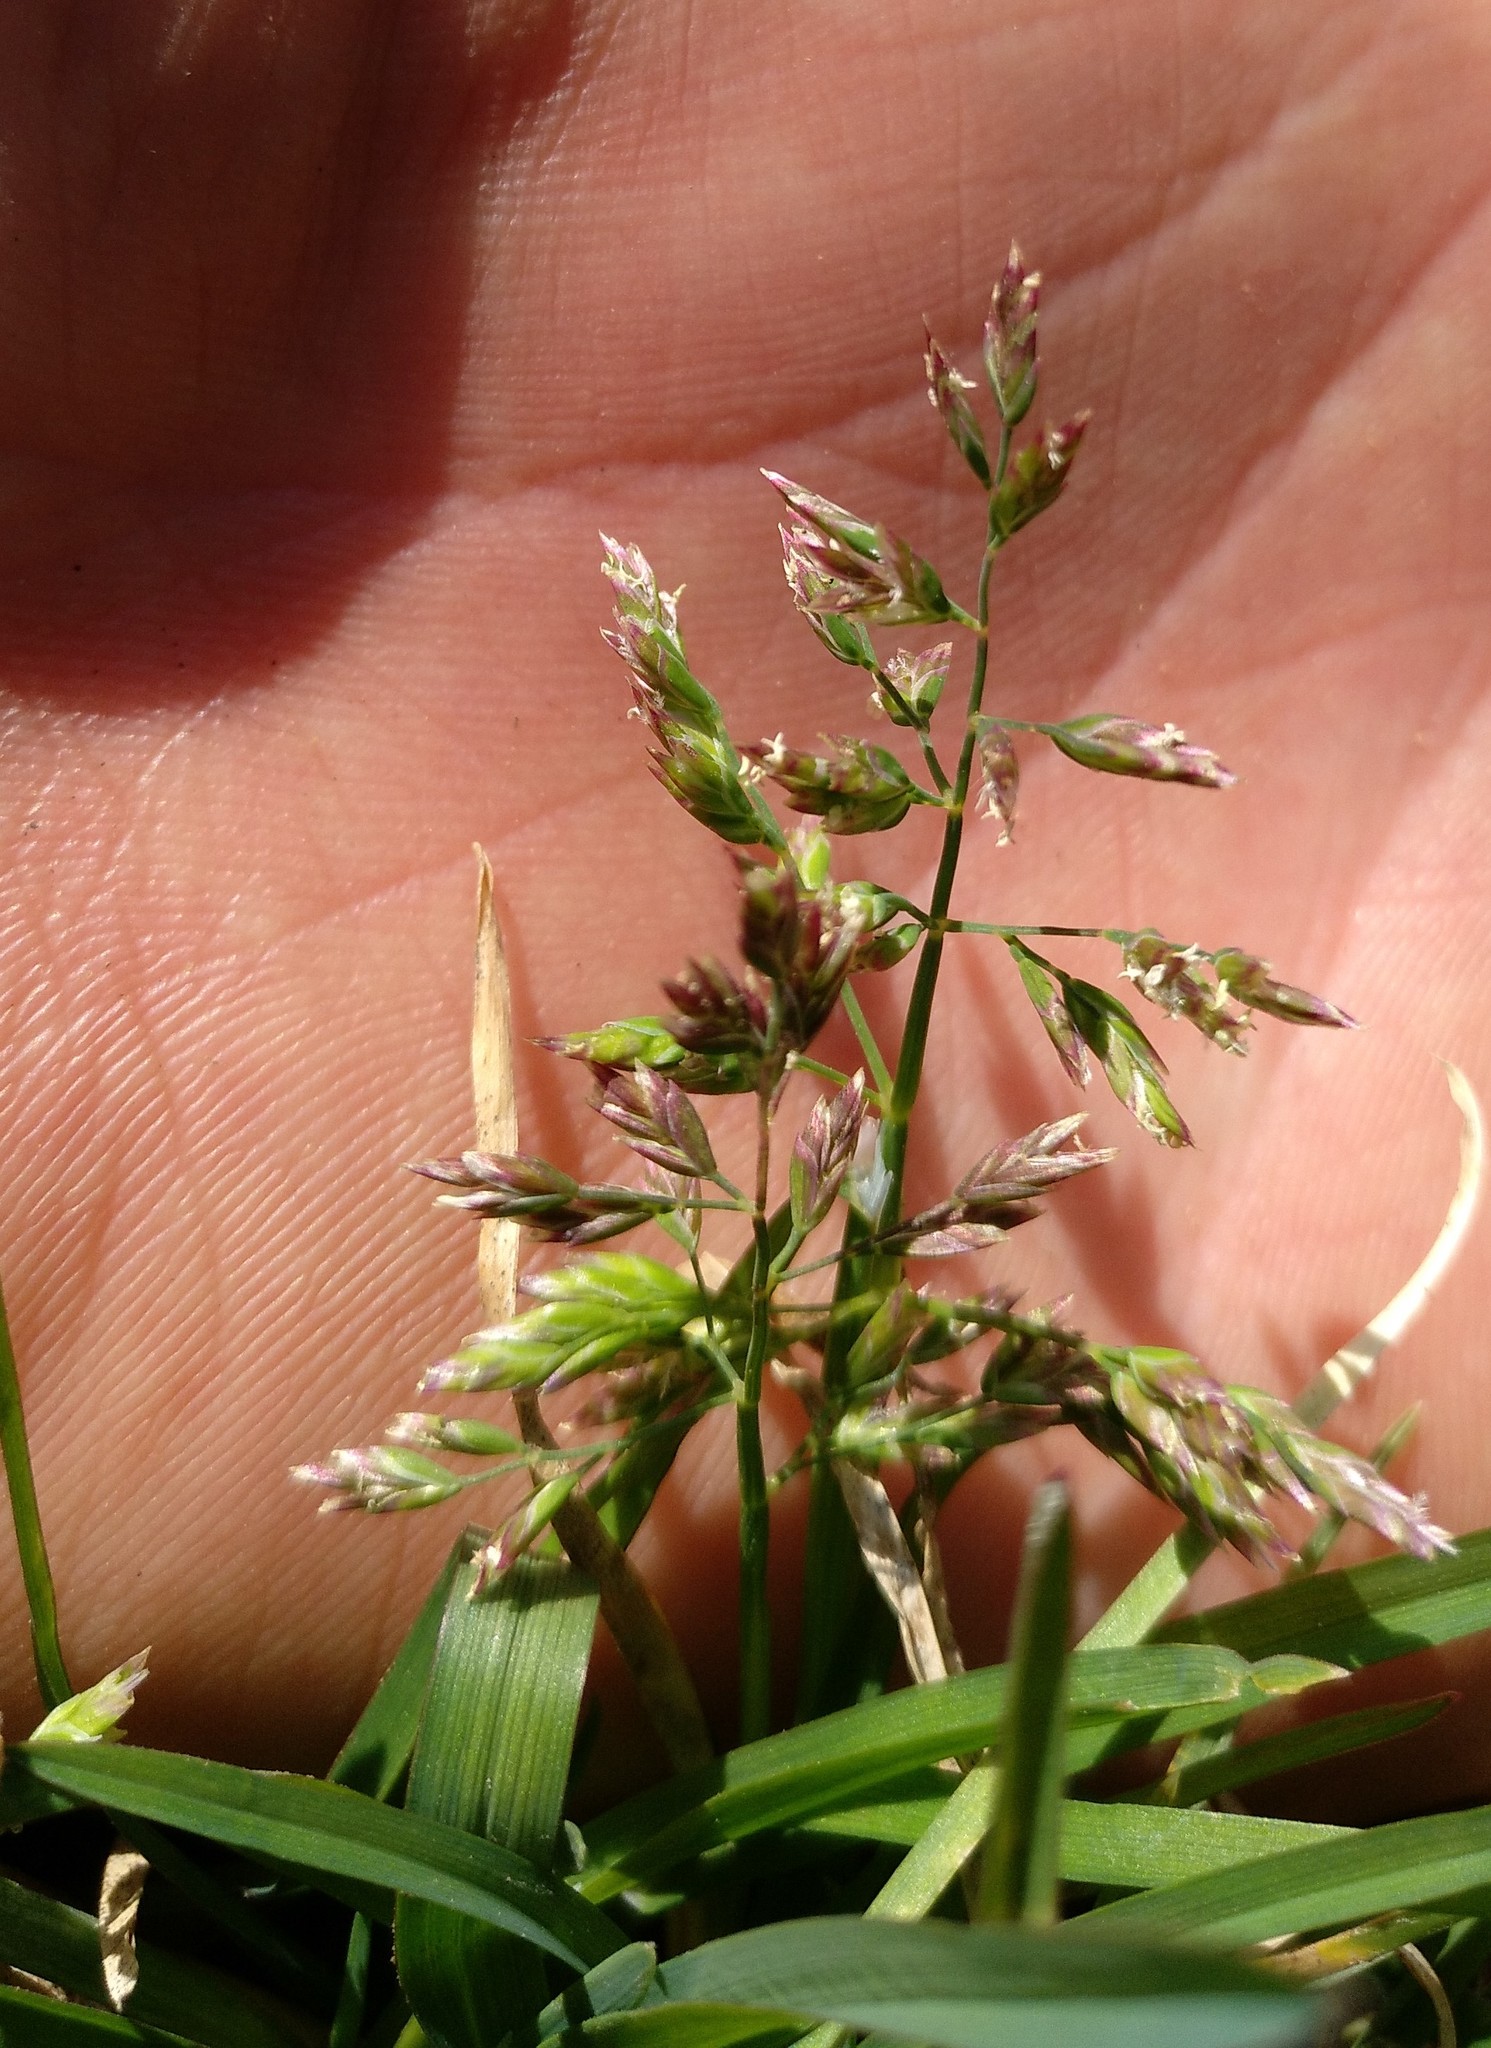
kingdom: Plantae
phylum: Tracheophyta
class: Liliopsida
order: Poales
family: Poaceae
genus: Poa
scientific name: Poa annua
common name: Annual bluegrass
